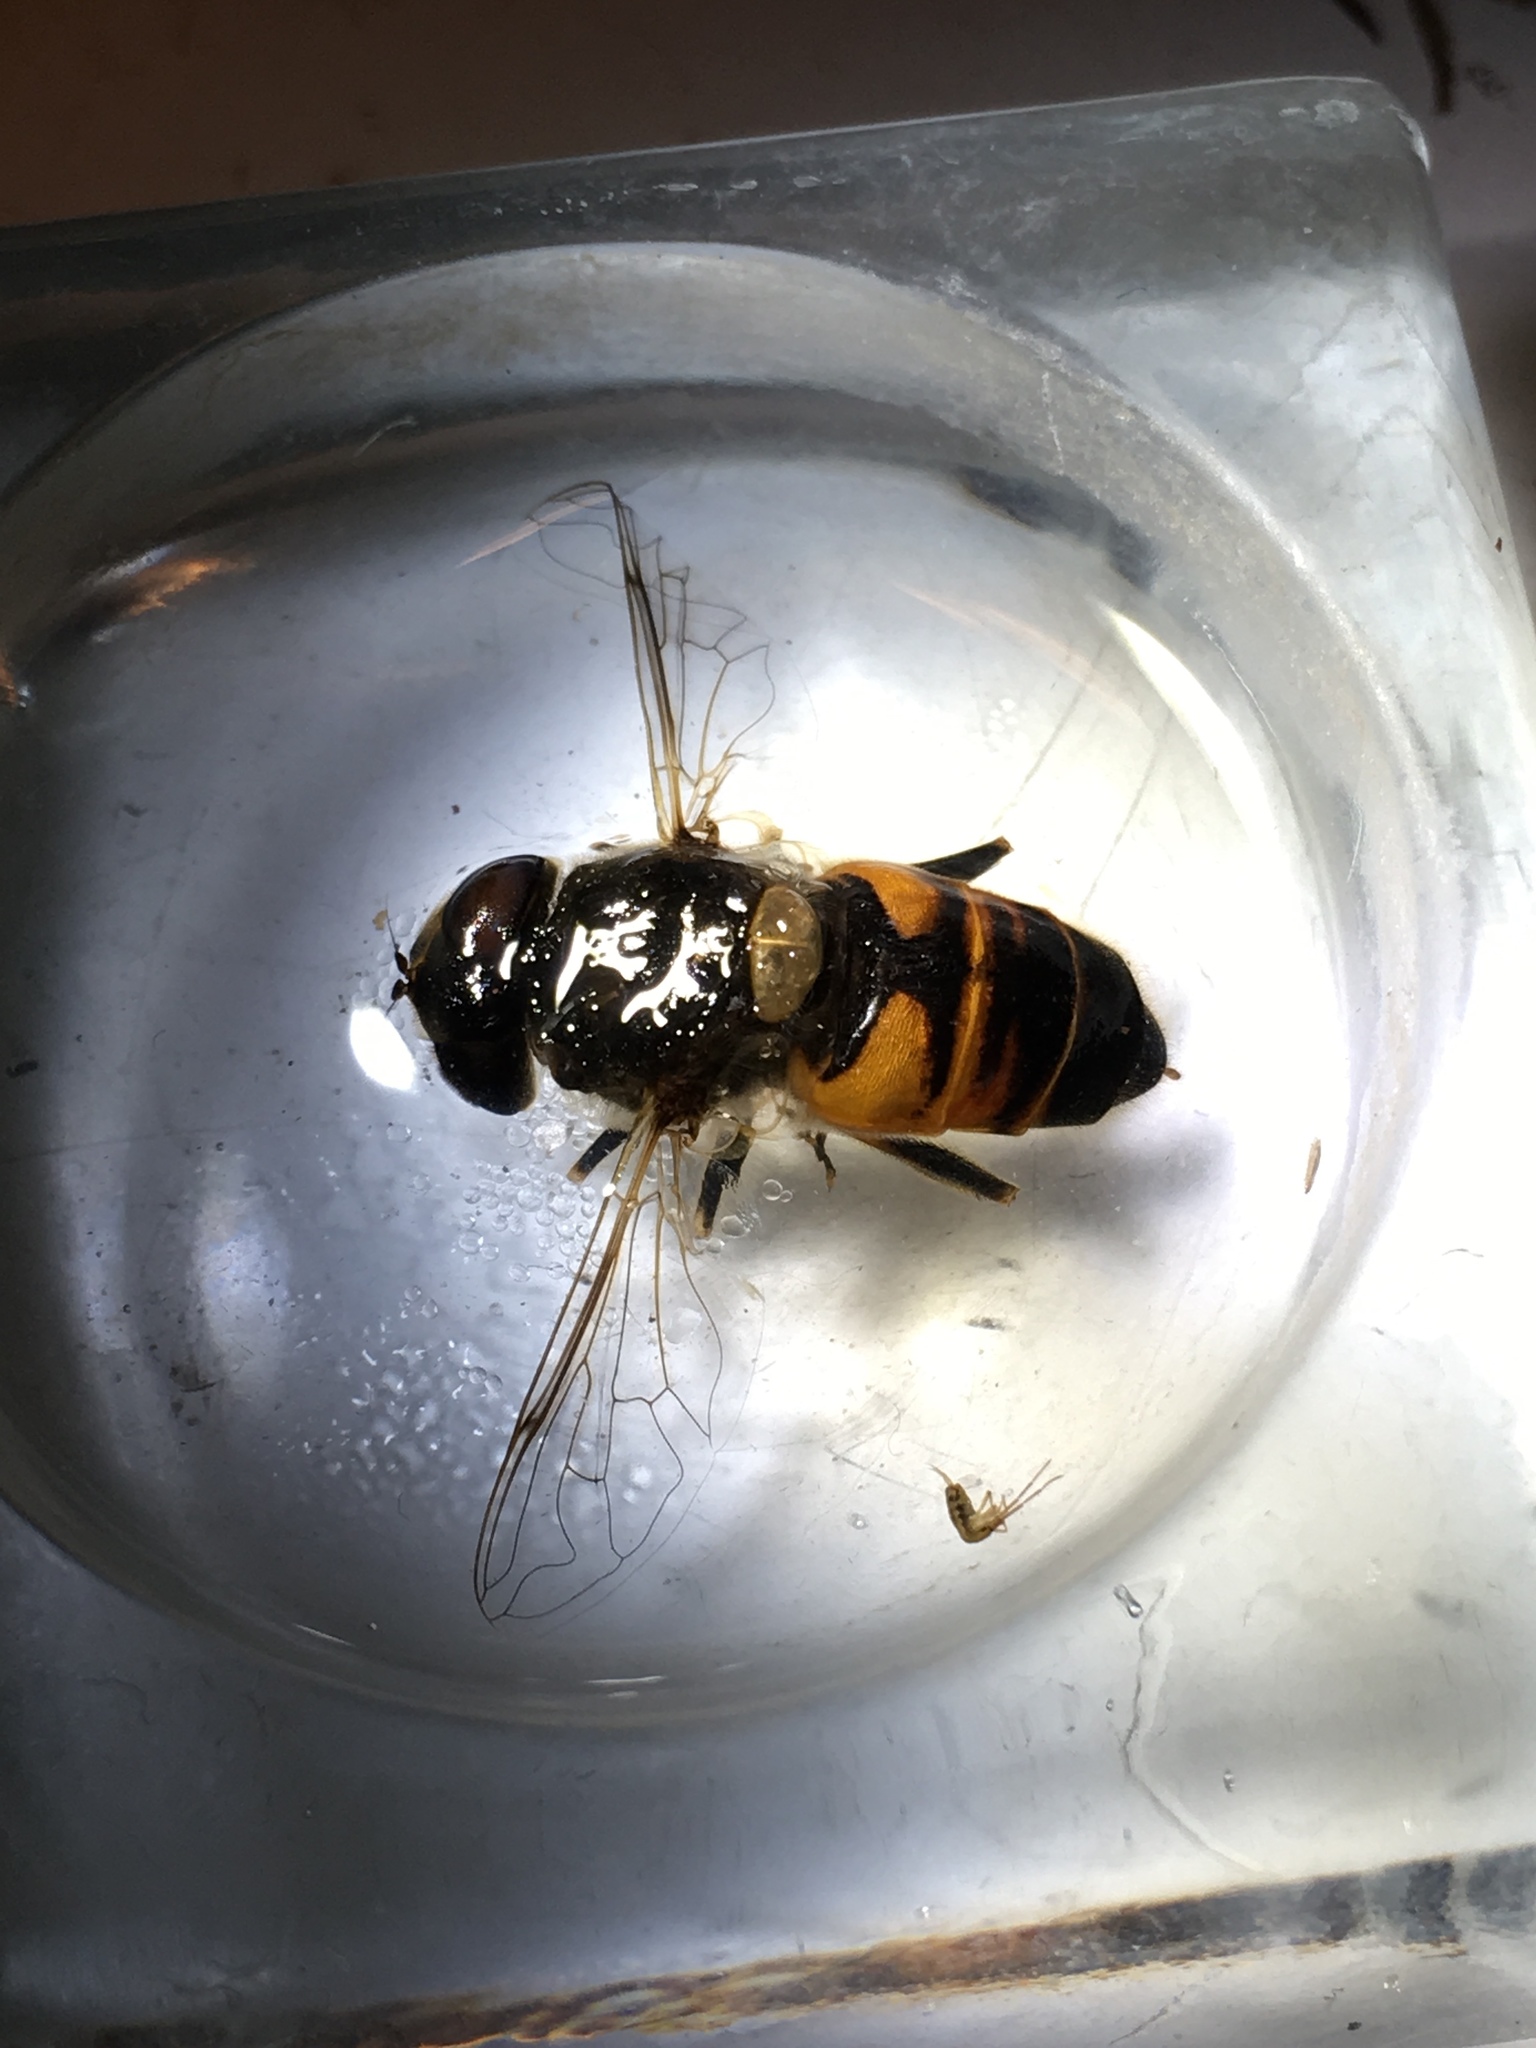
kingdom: Animalia
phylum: Arthropoda
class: Insecta
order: Diptera
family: Syrphidae
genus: Eristalis
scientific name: Eristalis tenax
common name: Drone fly
